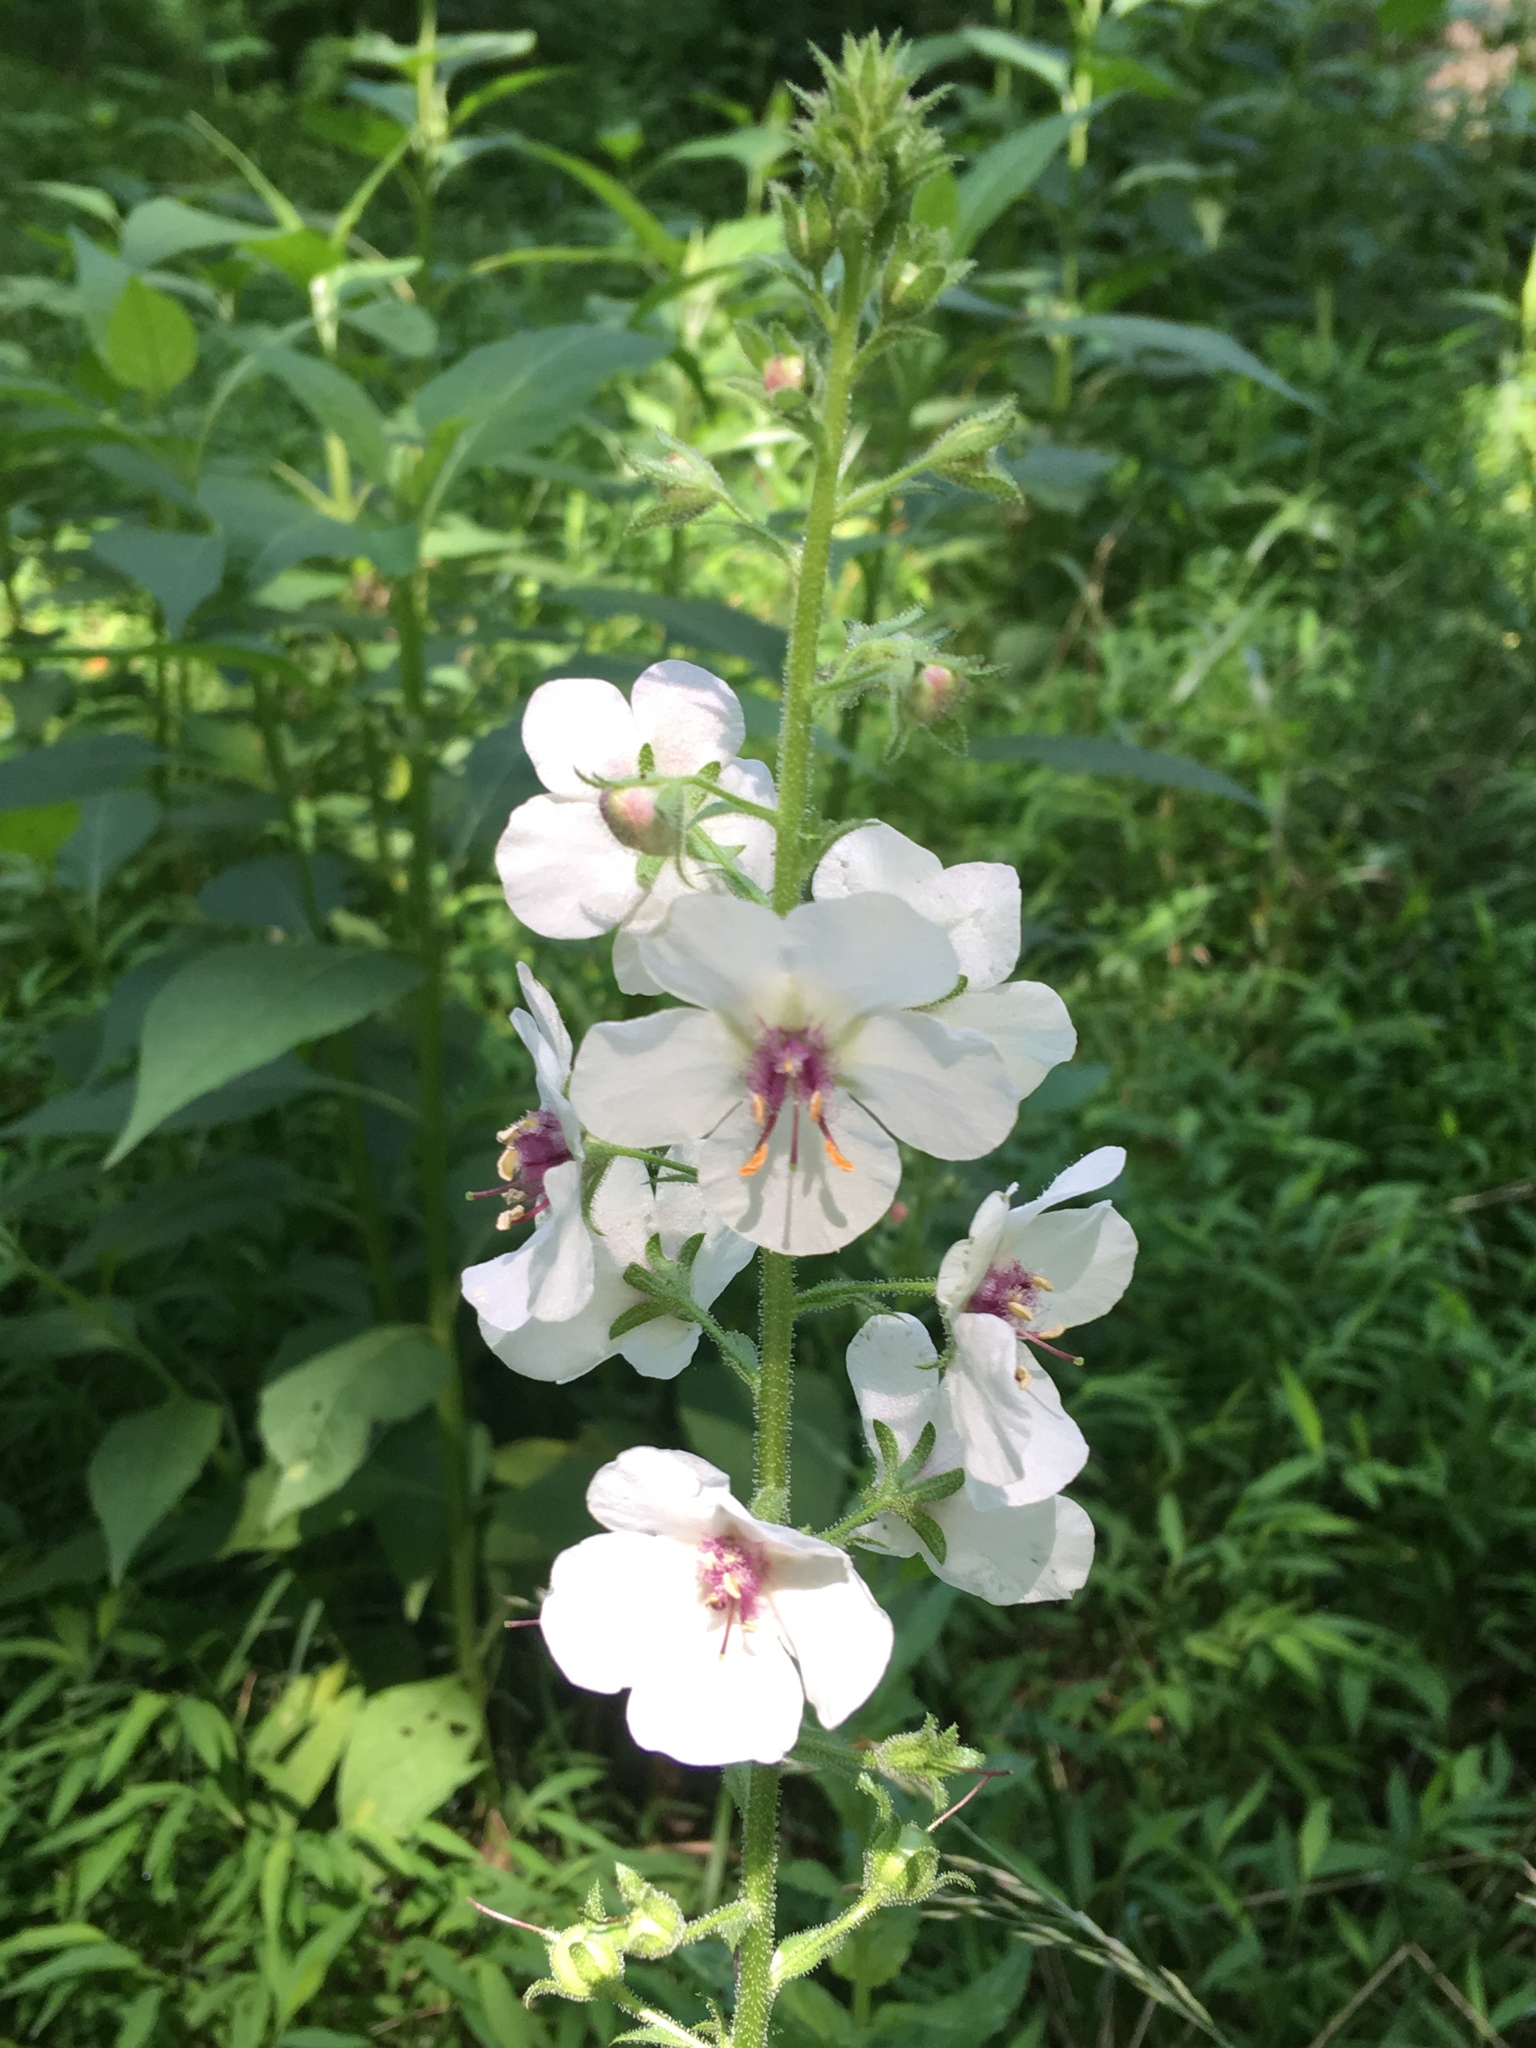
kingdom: Plantae
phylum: Tracheophyta
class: Magnoliopsida
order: Lamiales
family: Scrophulariaceae
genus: Verbascum
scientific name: Verbascum blattaria
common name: Moth mullein
